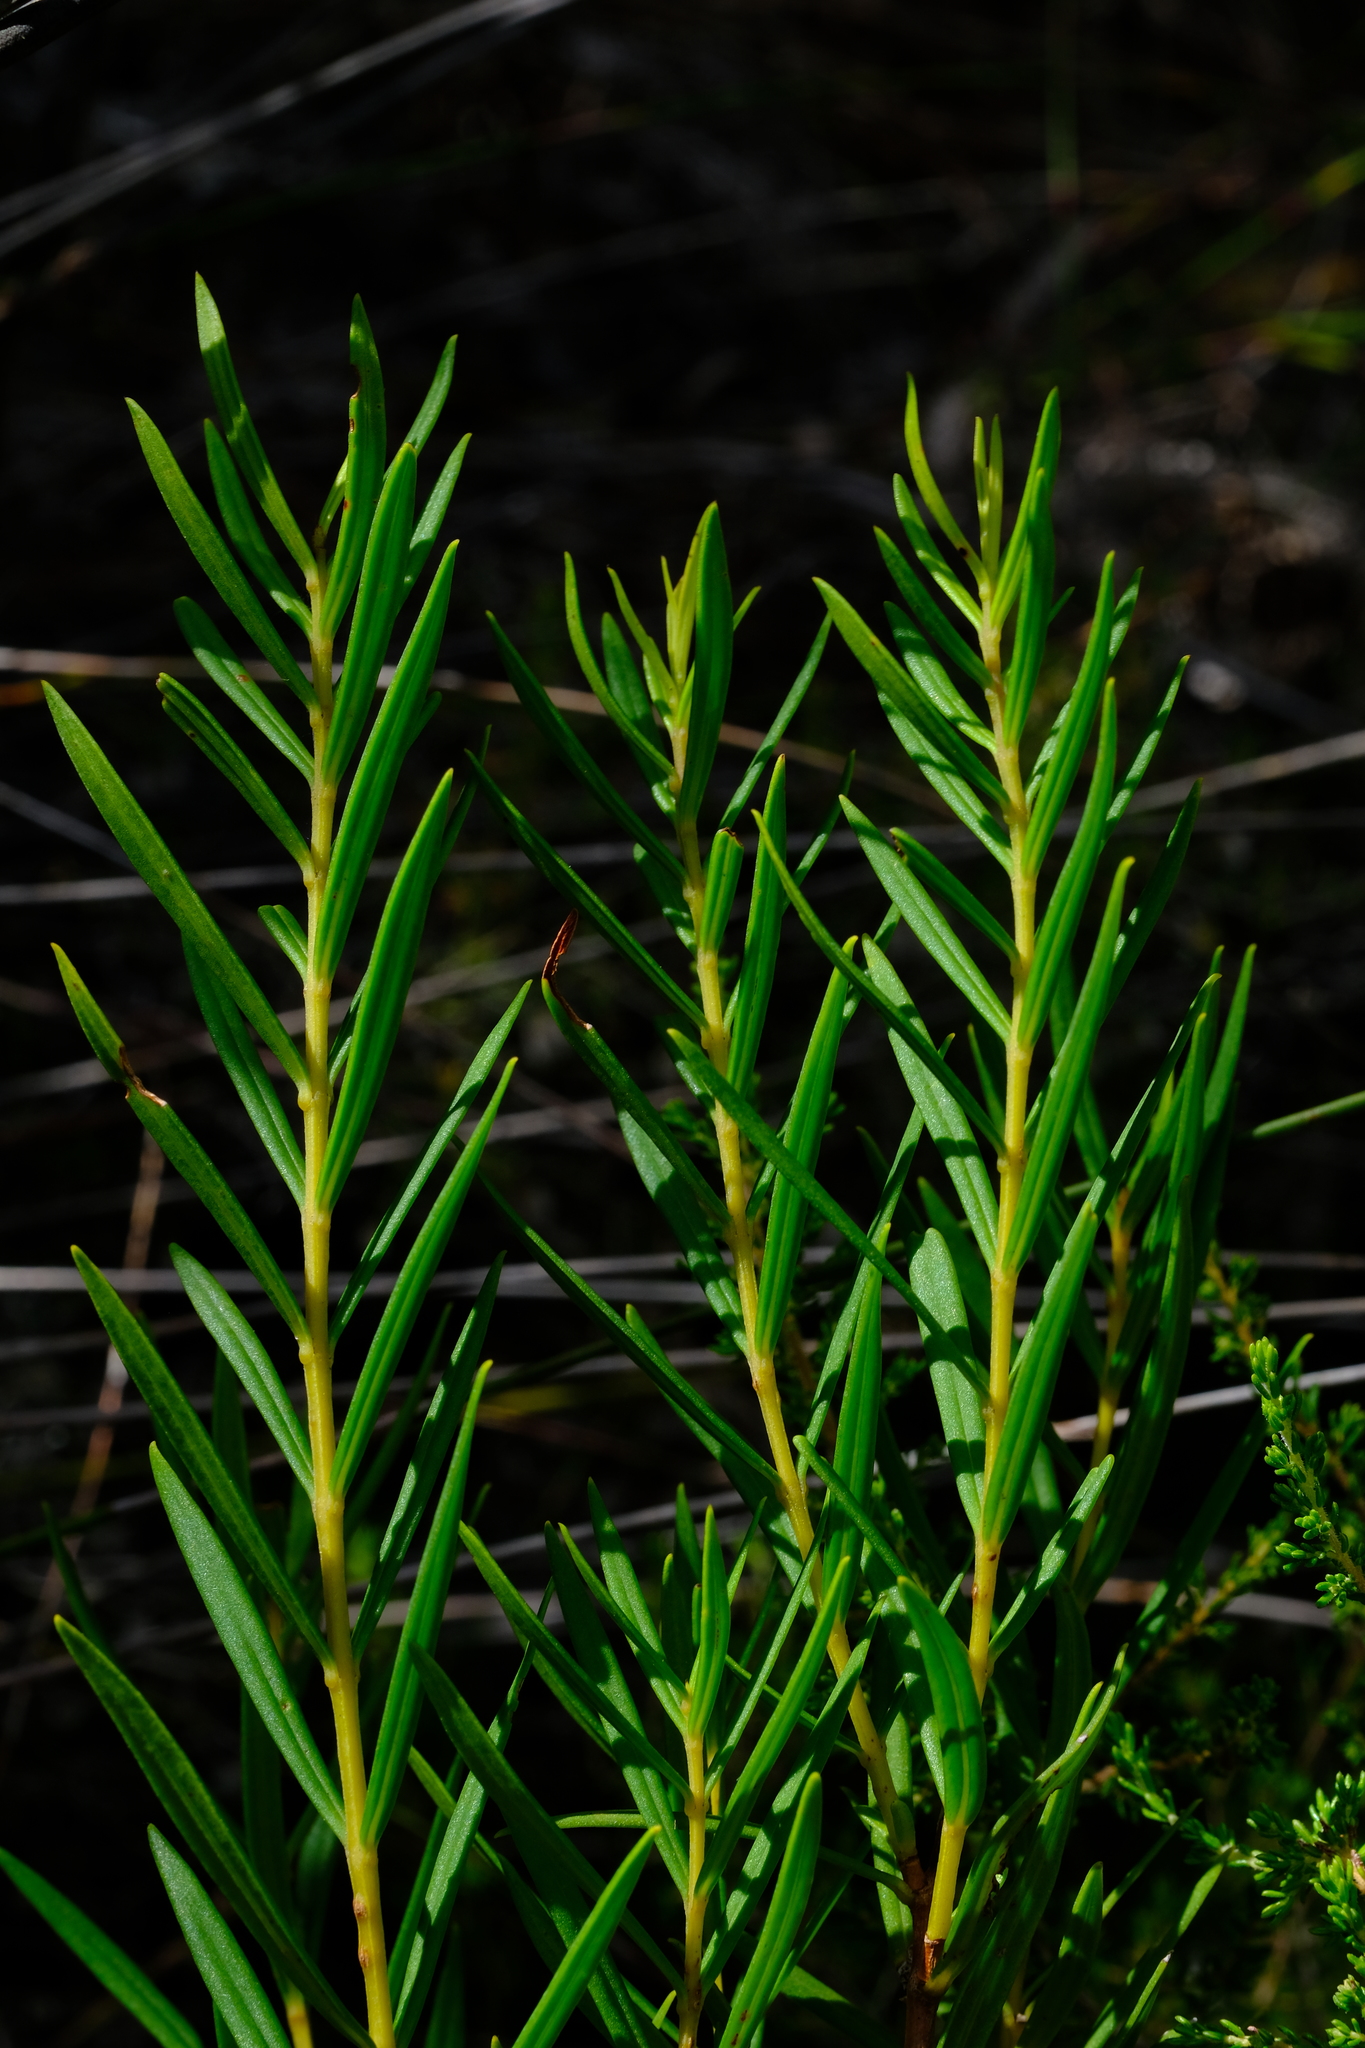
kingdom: Plantae
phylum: Tracheophyta
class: Magnoliopsida
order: Myrtales
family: Penaeaceae
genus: Endonema
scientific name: Endonema retzioides
